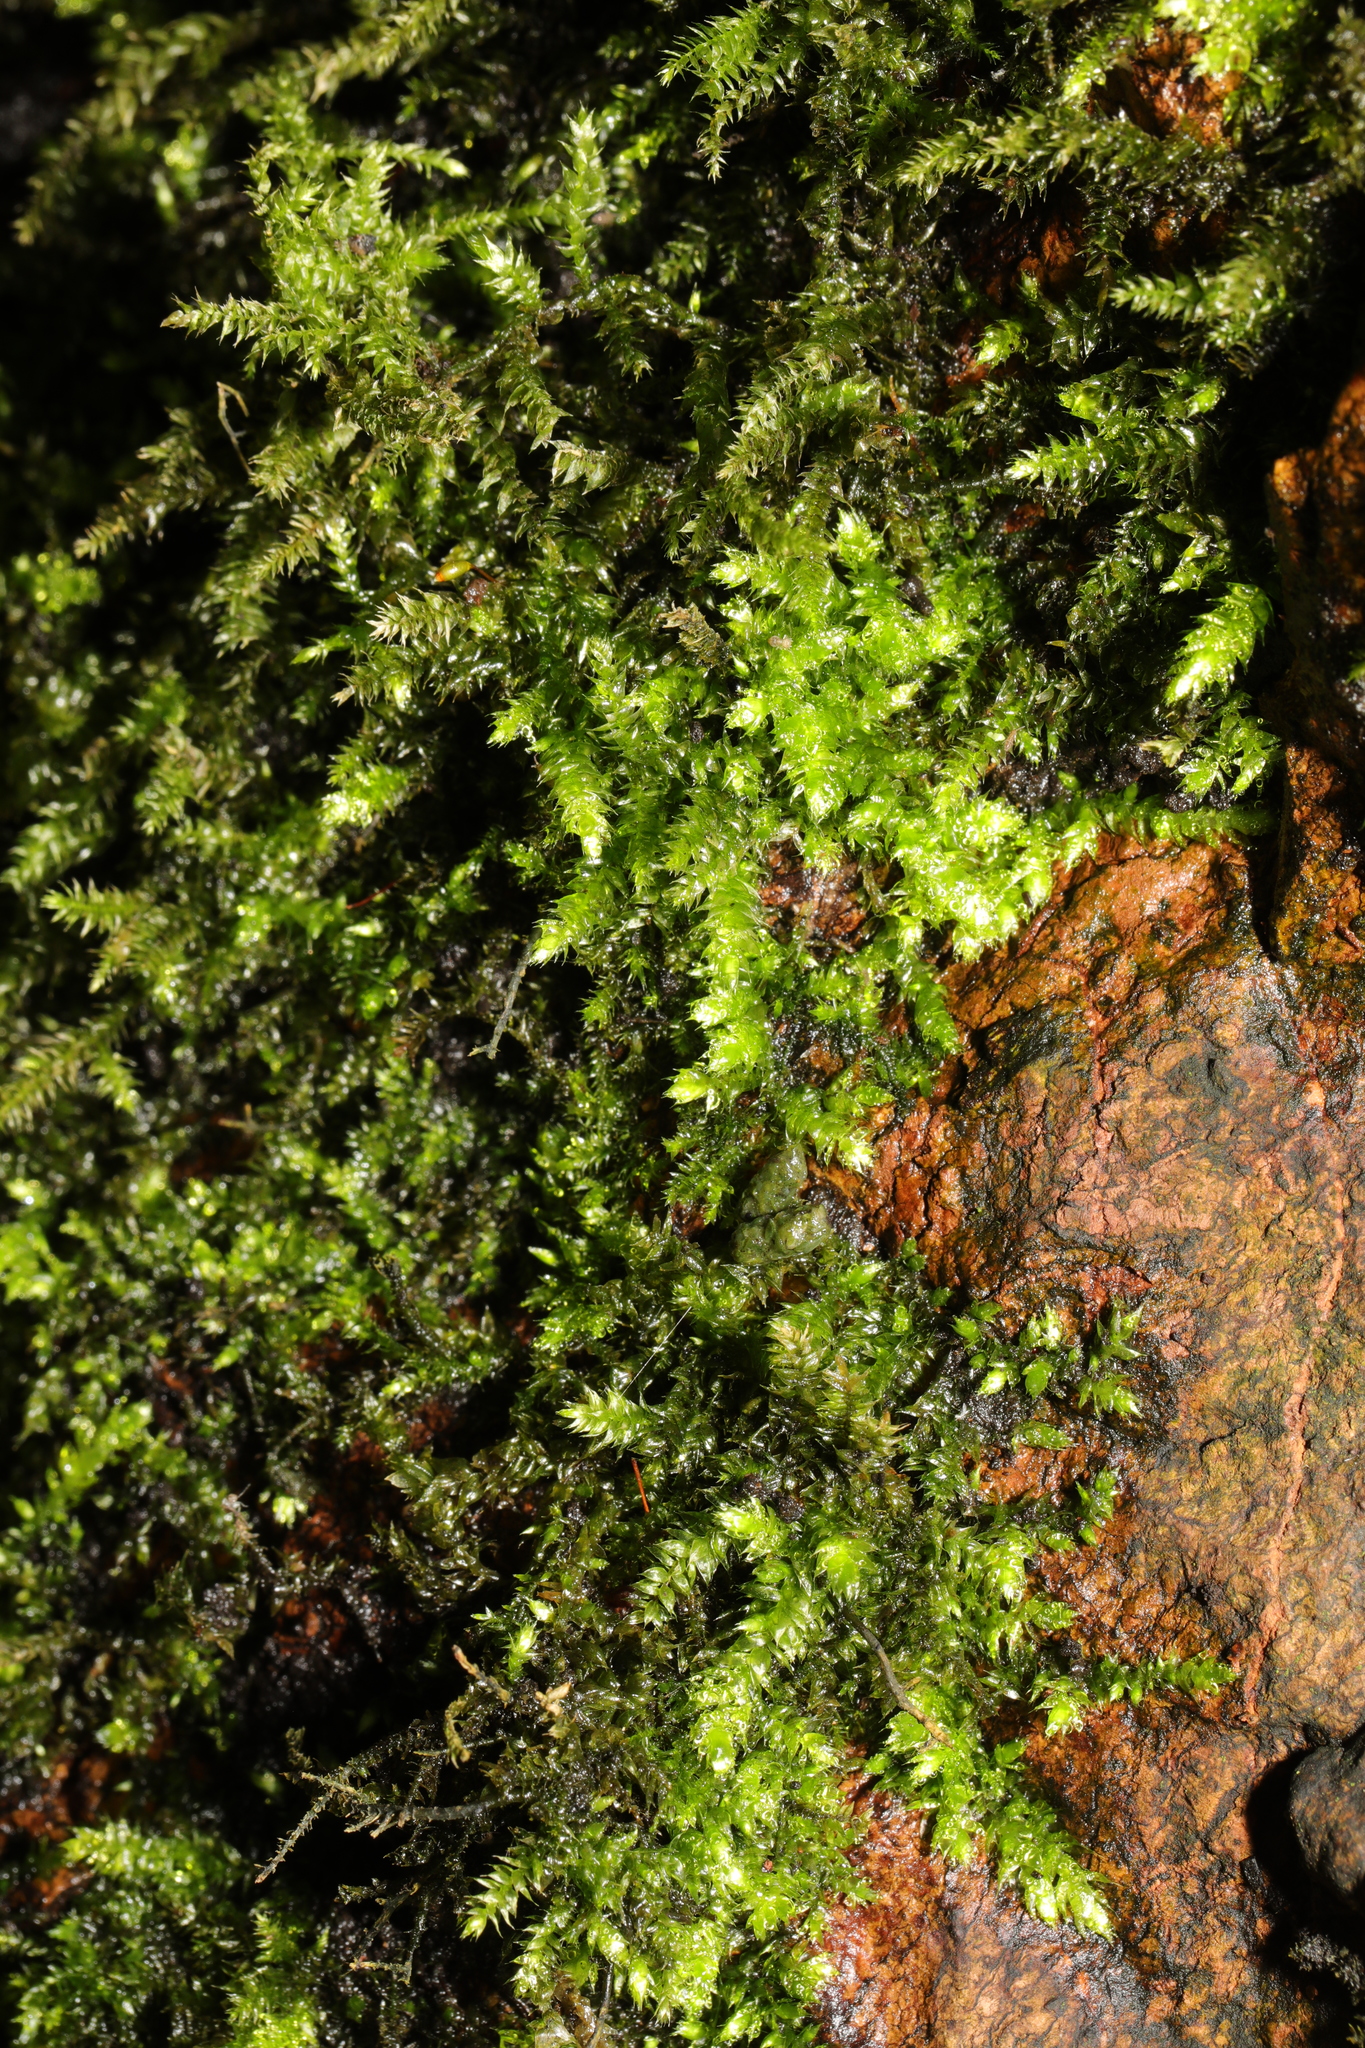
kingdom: Plantae
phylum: Bryophyta
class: Bryopsida
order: Hypnales
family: Brachytheciaceae
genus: Cirriphyllum
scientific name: Cirriphyllum piliferum
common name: Hair-pointed moss
